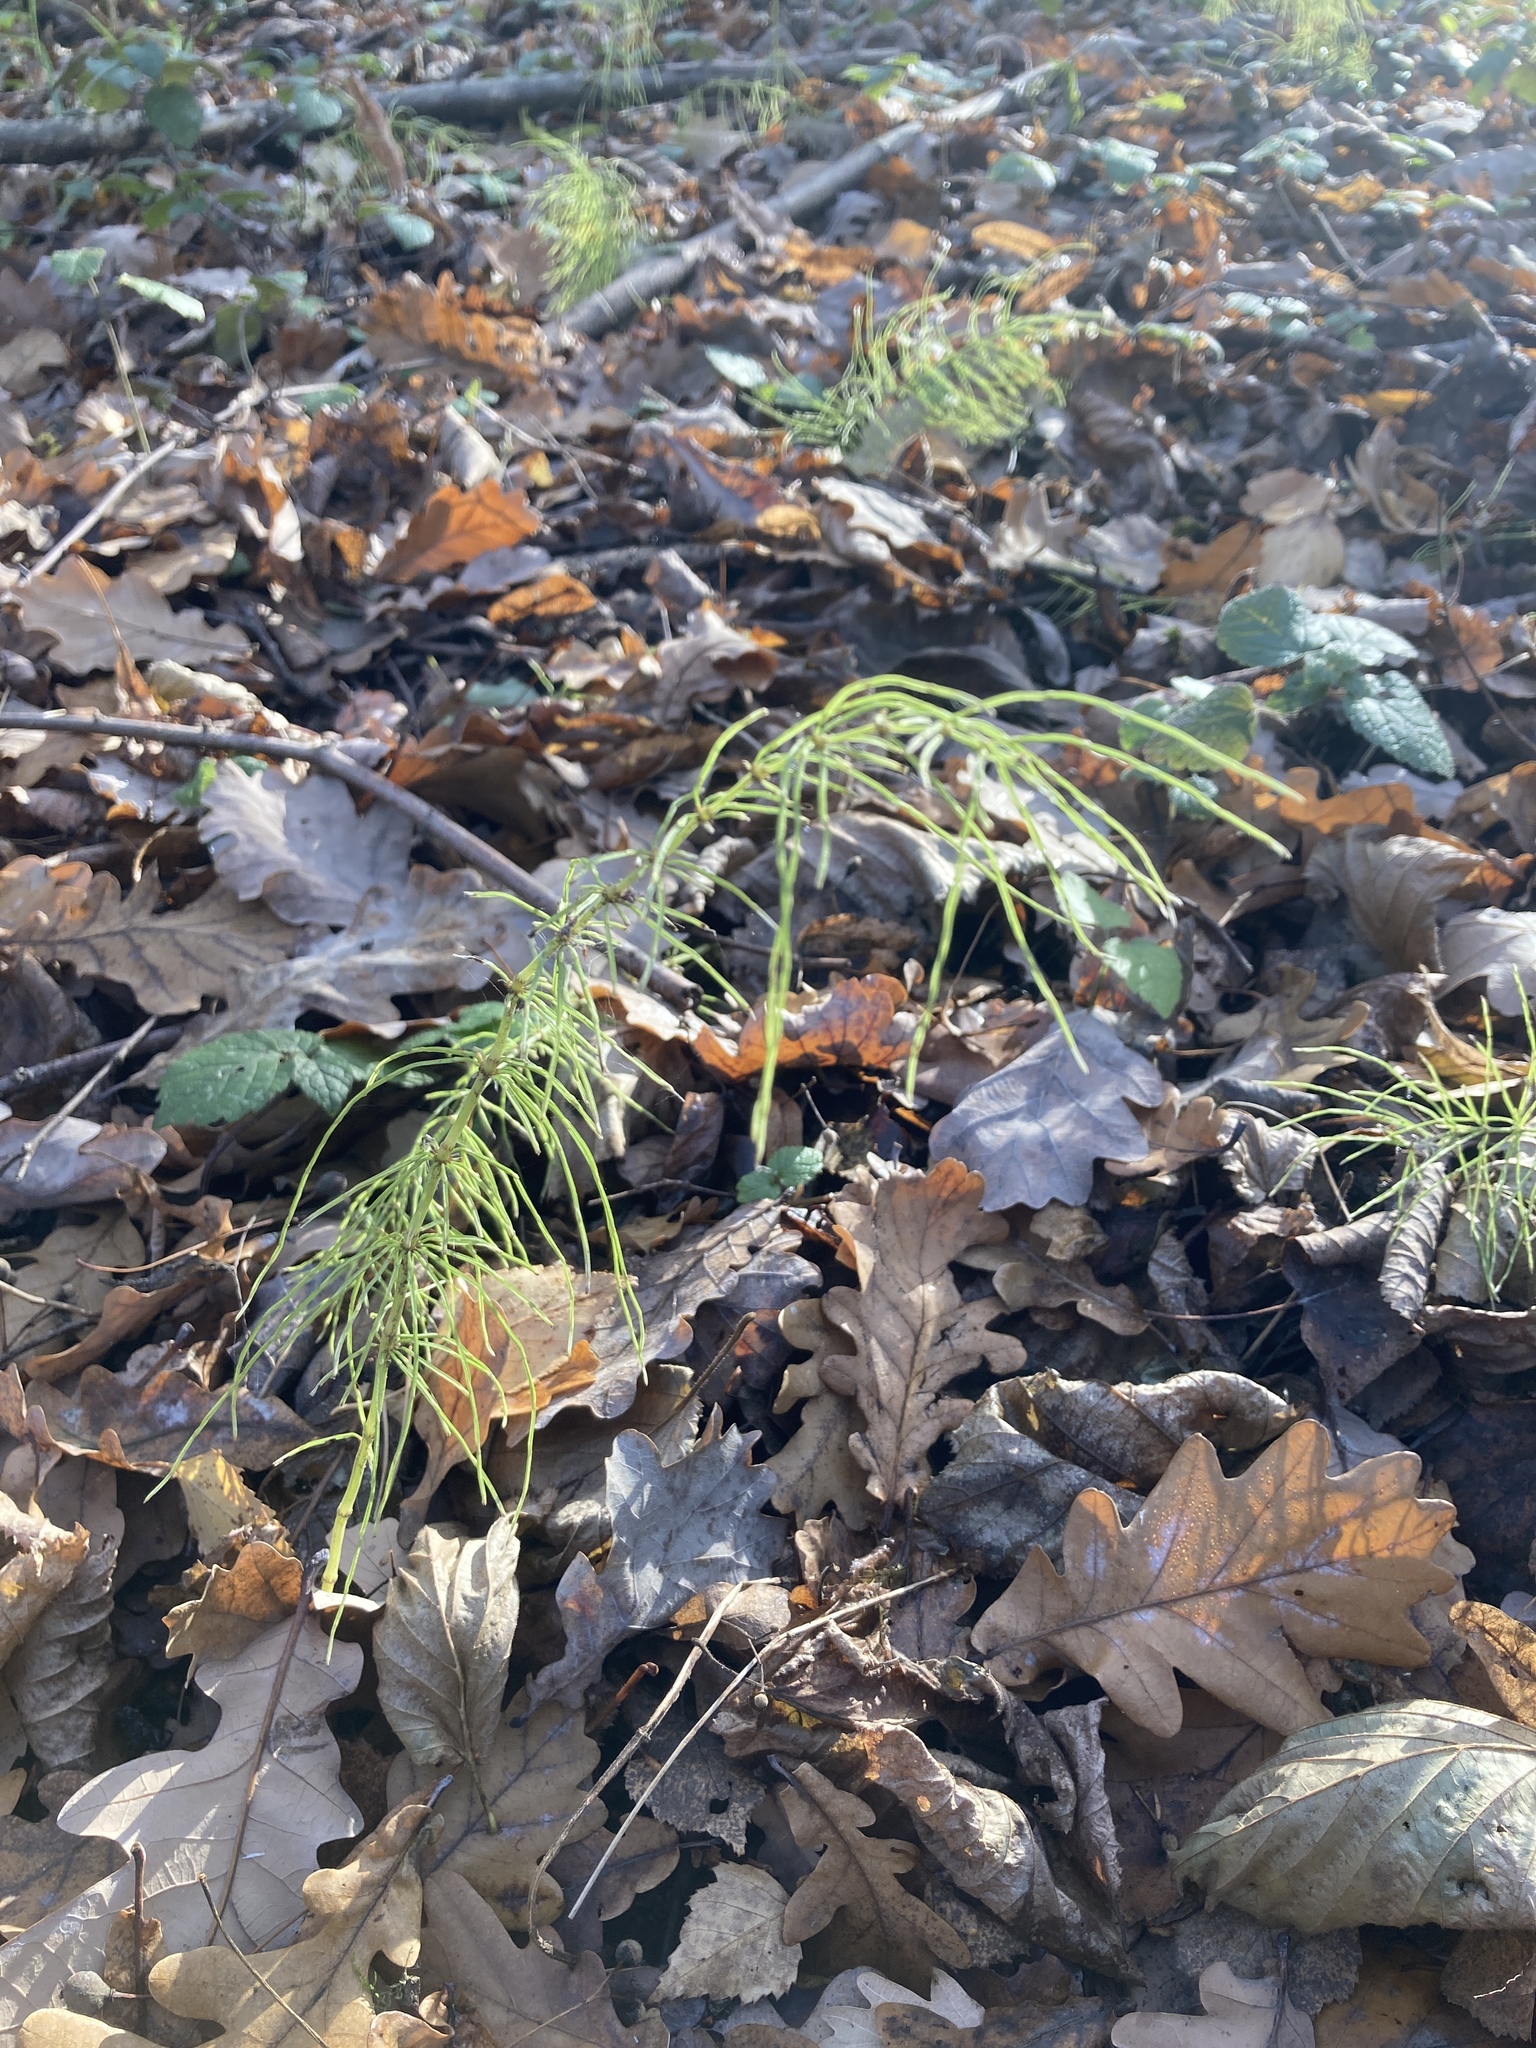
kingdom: Plantae
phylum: Tracheophyta
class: Polypodiopsida
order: Equisetales
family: Equisetaceae
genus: Equisetum
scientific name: Equisetum pratense
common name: Meadow horsetail
